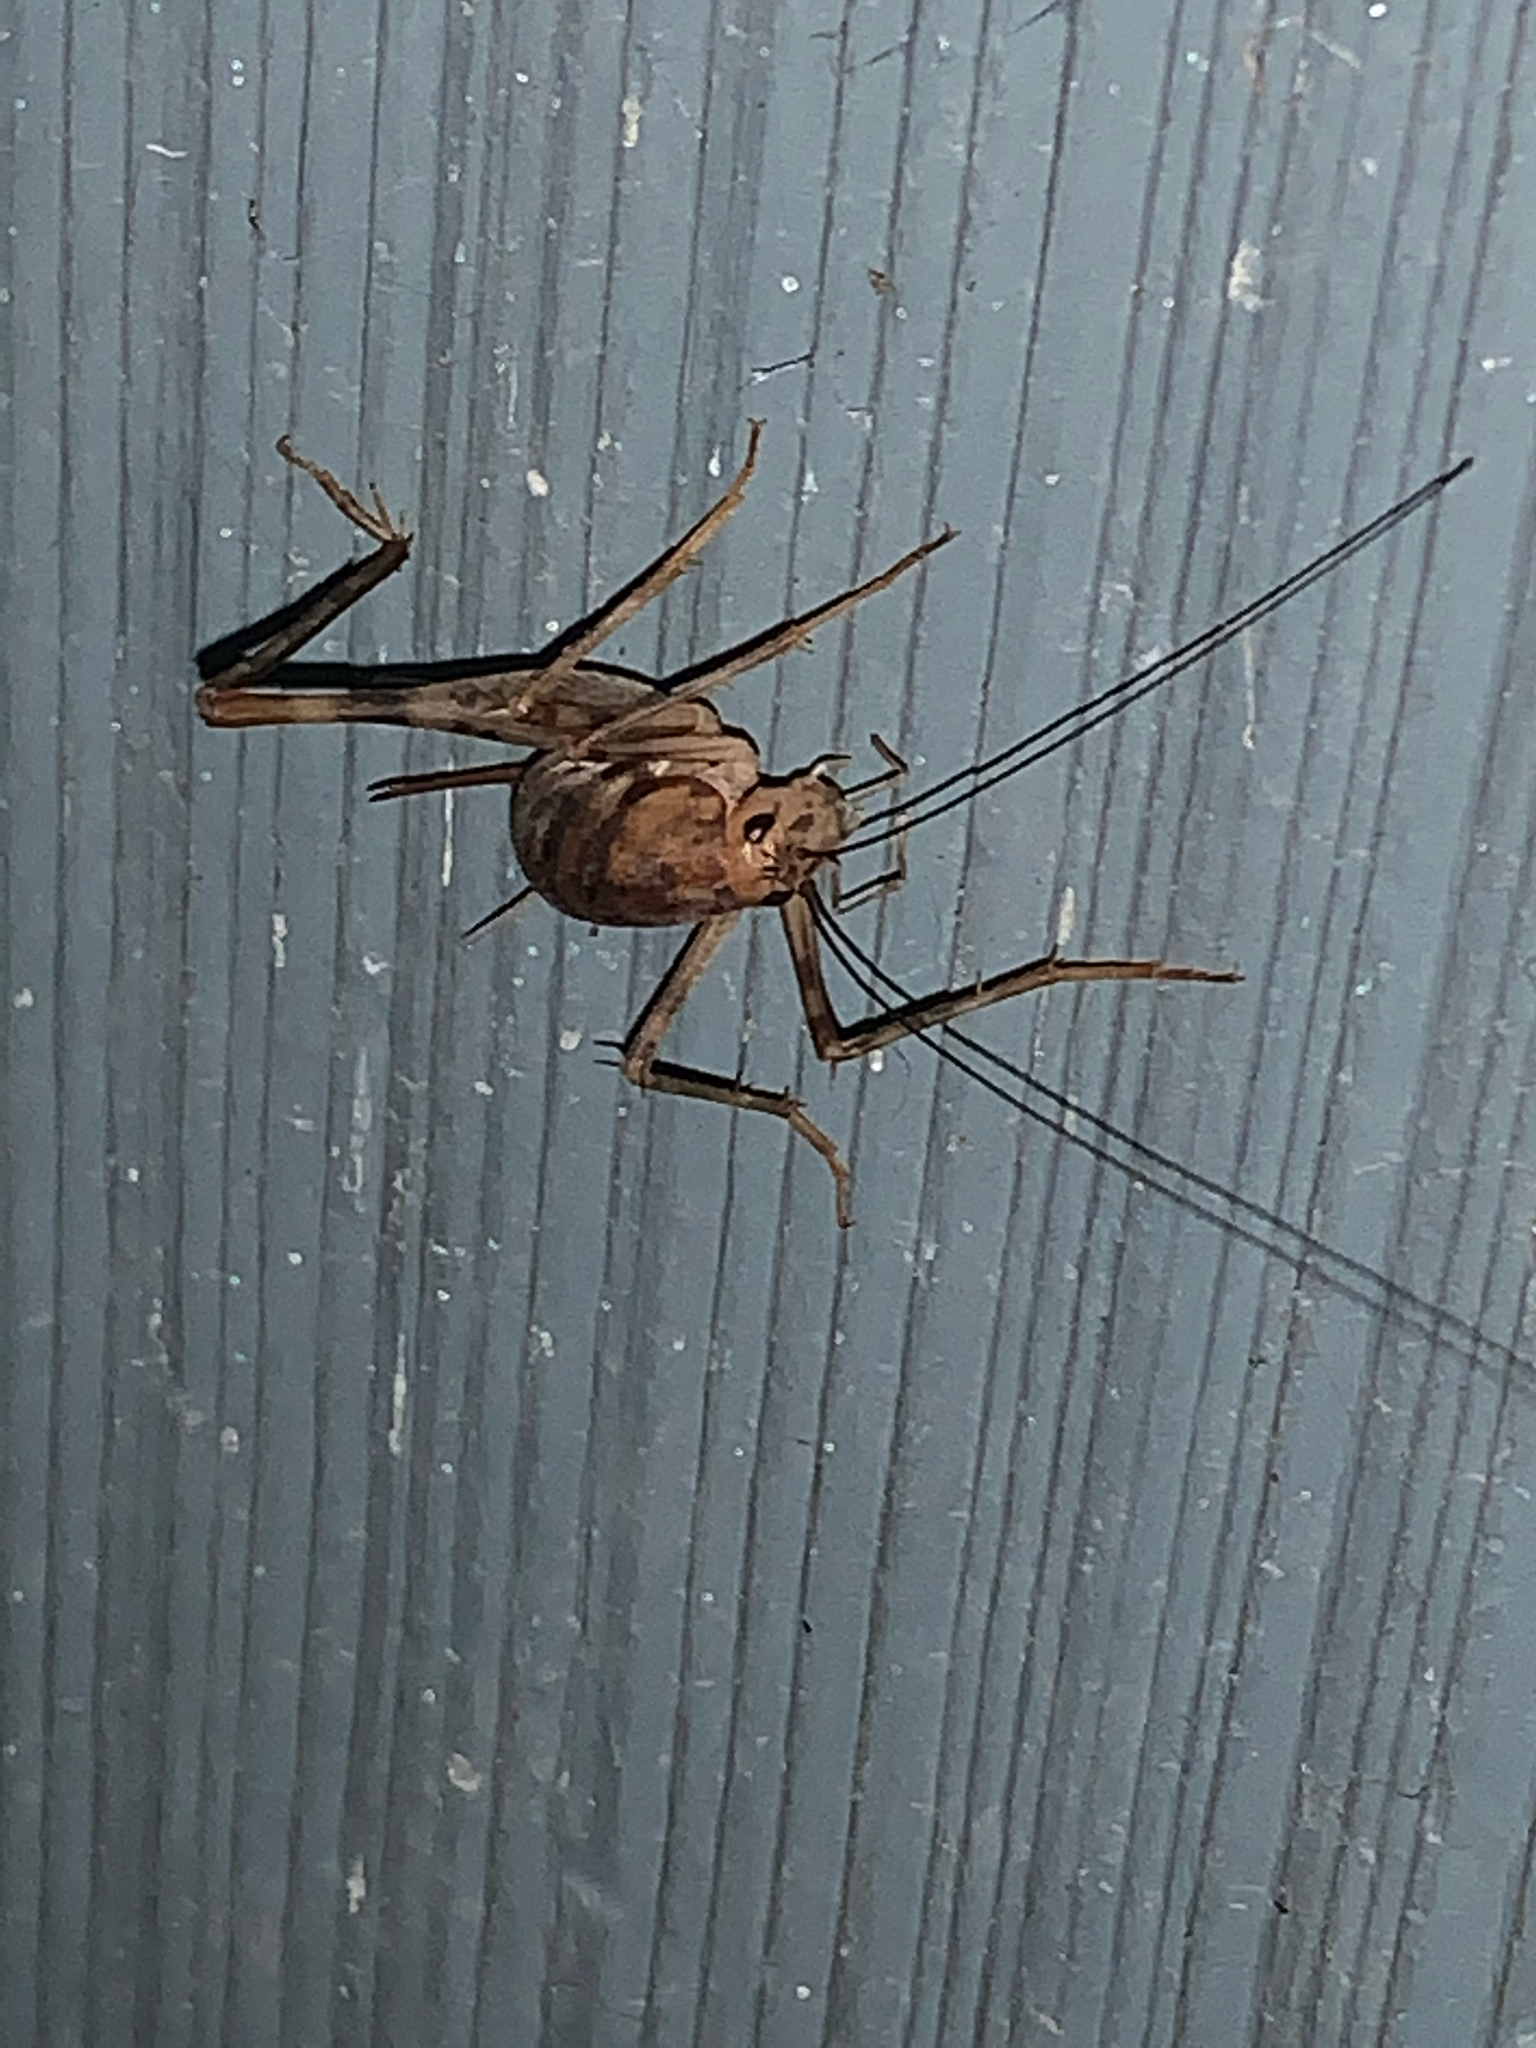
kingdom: Animalia
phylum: Arthropoda
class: Insecta
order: Orthoptera
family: Rhaphidophoridae
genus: Tachycines
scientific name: Tachycines asynamorus
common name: Greenhouse camel cricket
